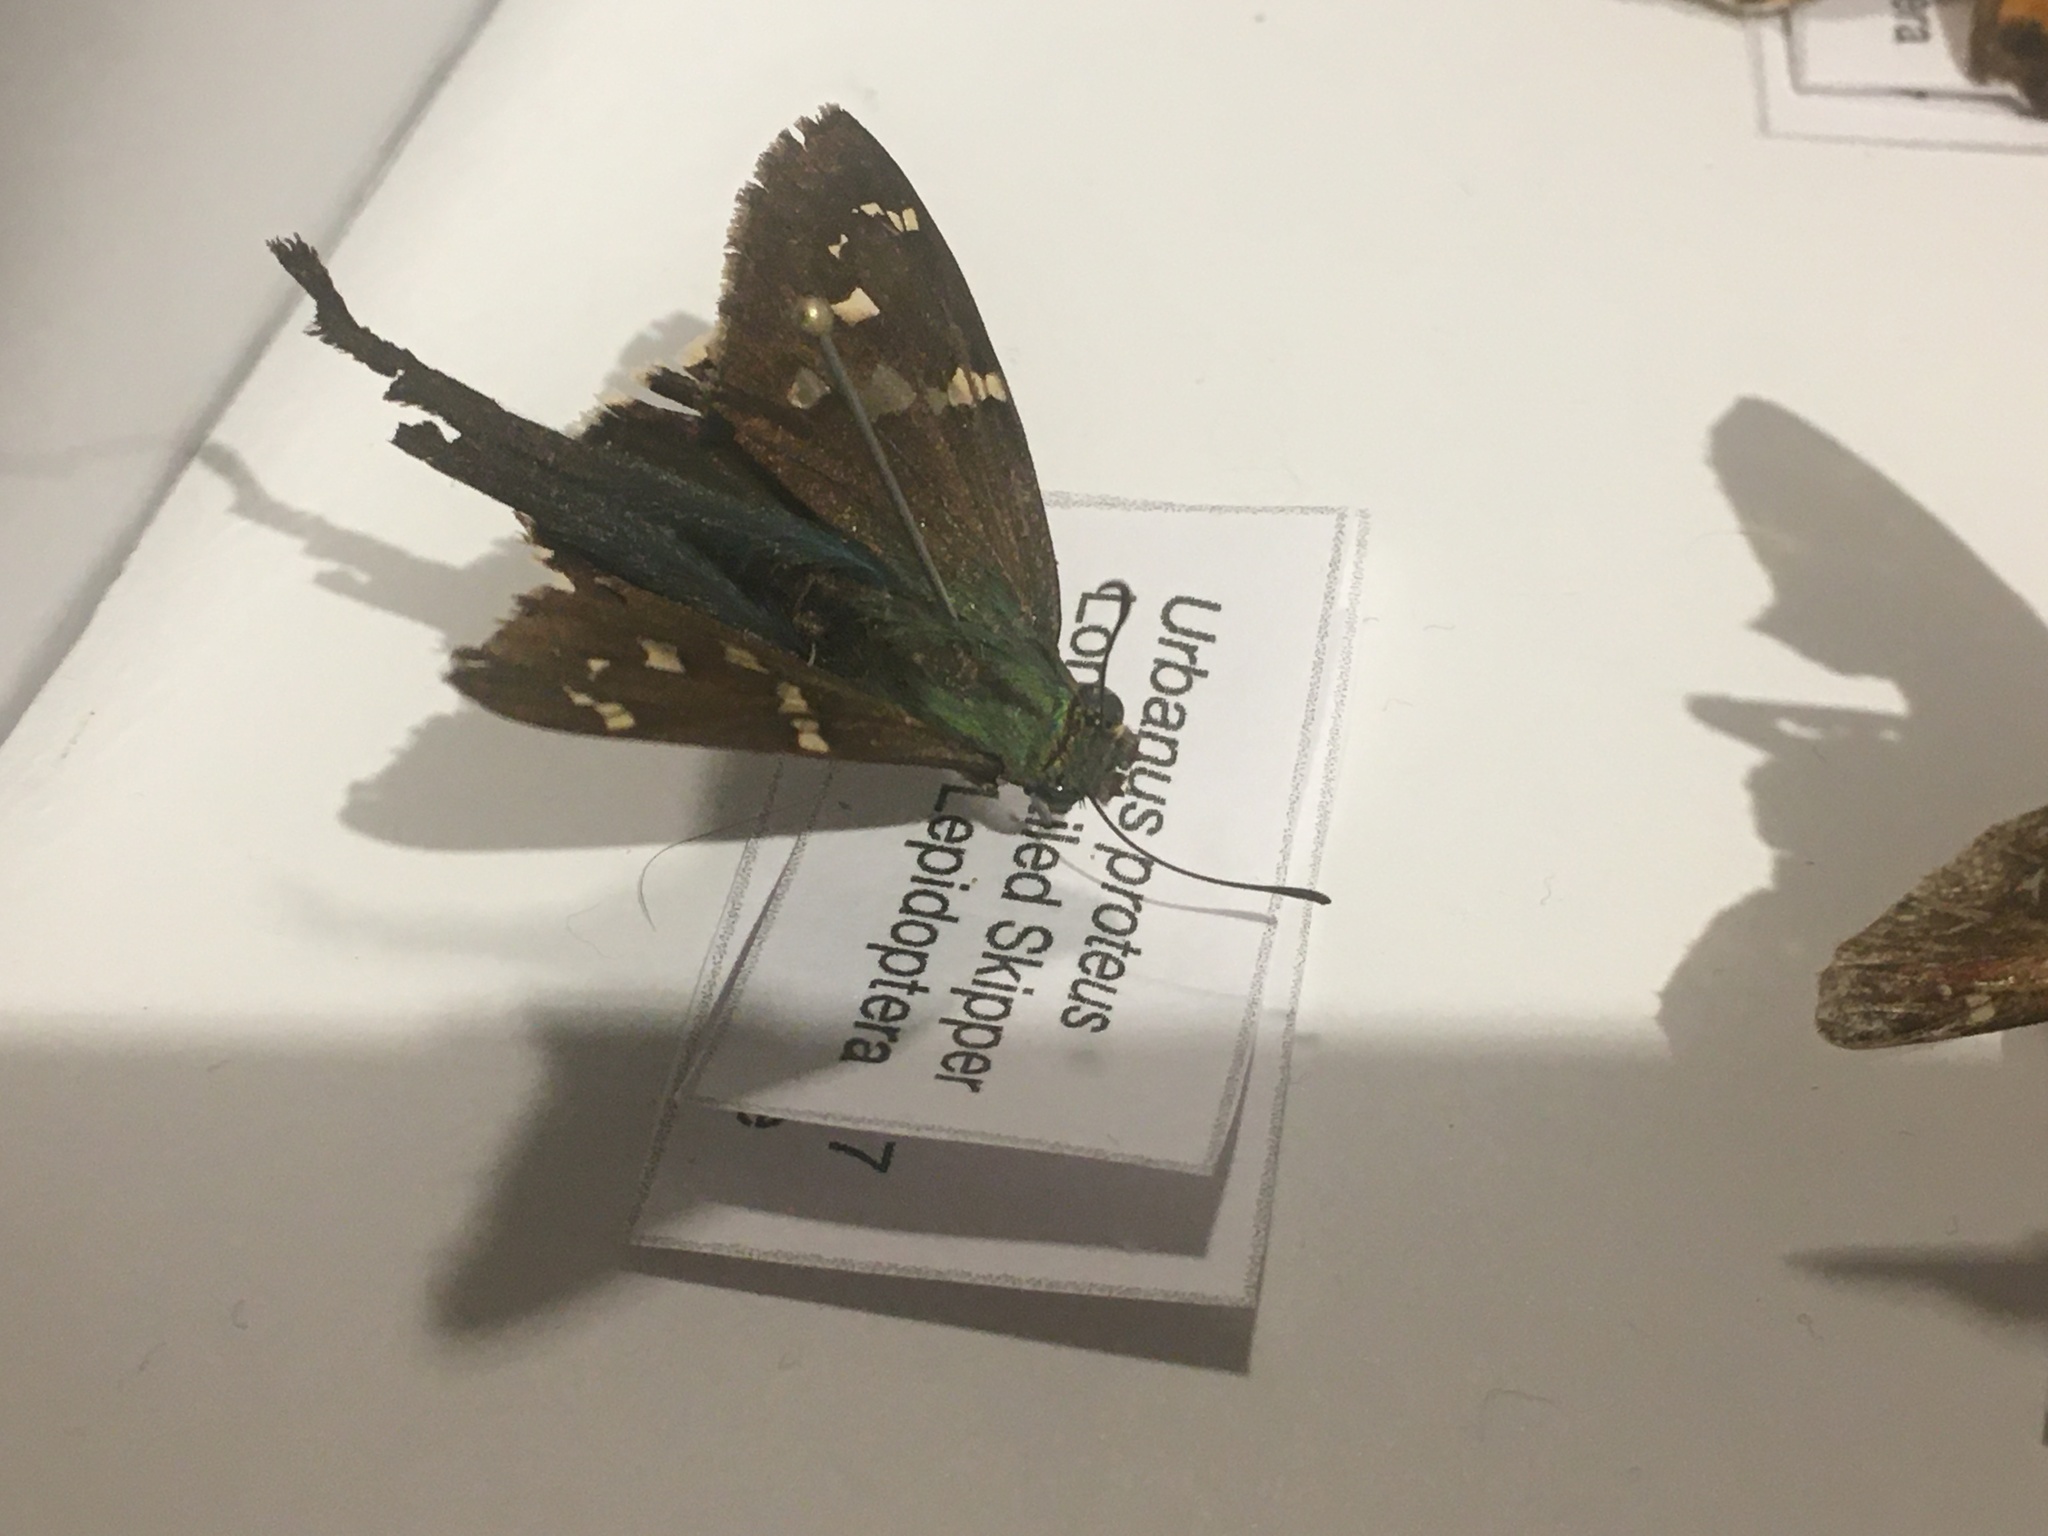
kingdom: Animalia
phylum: Arthropoda
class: Insecta
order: Lepidoptera
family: Hesperiidae
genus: Urbanus
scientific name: Urbanus proteus
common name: Long-tailed skipper
